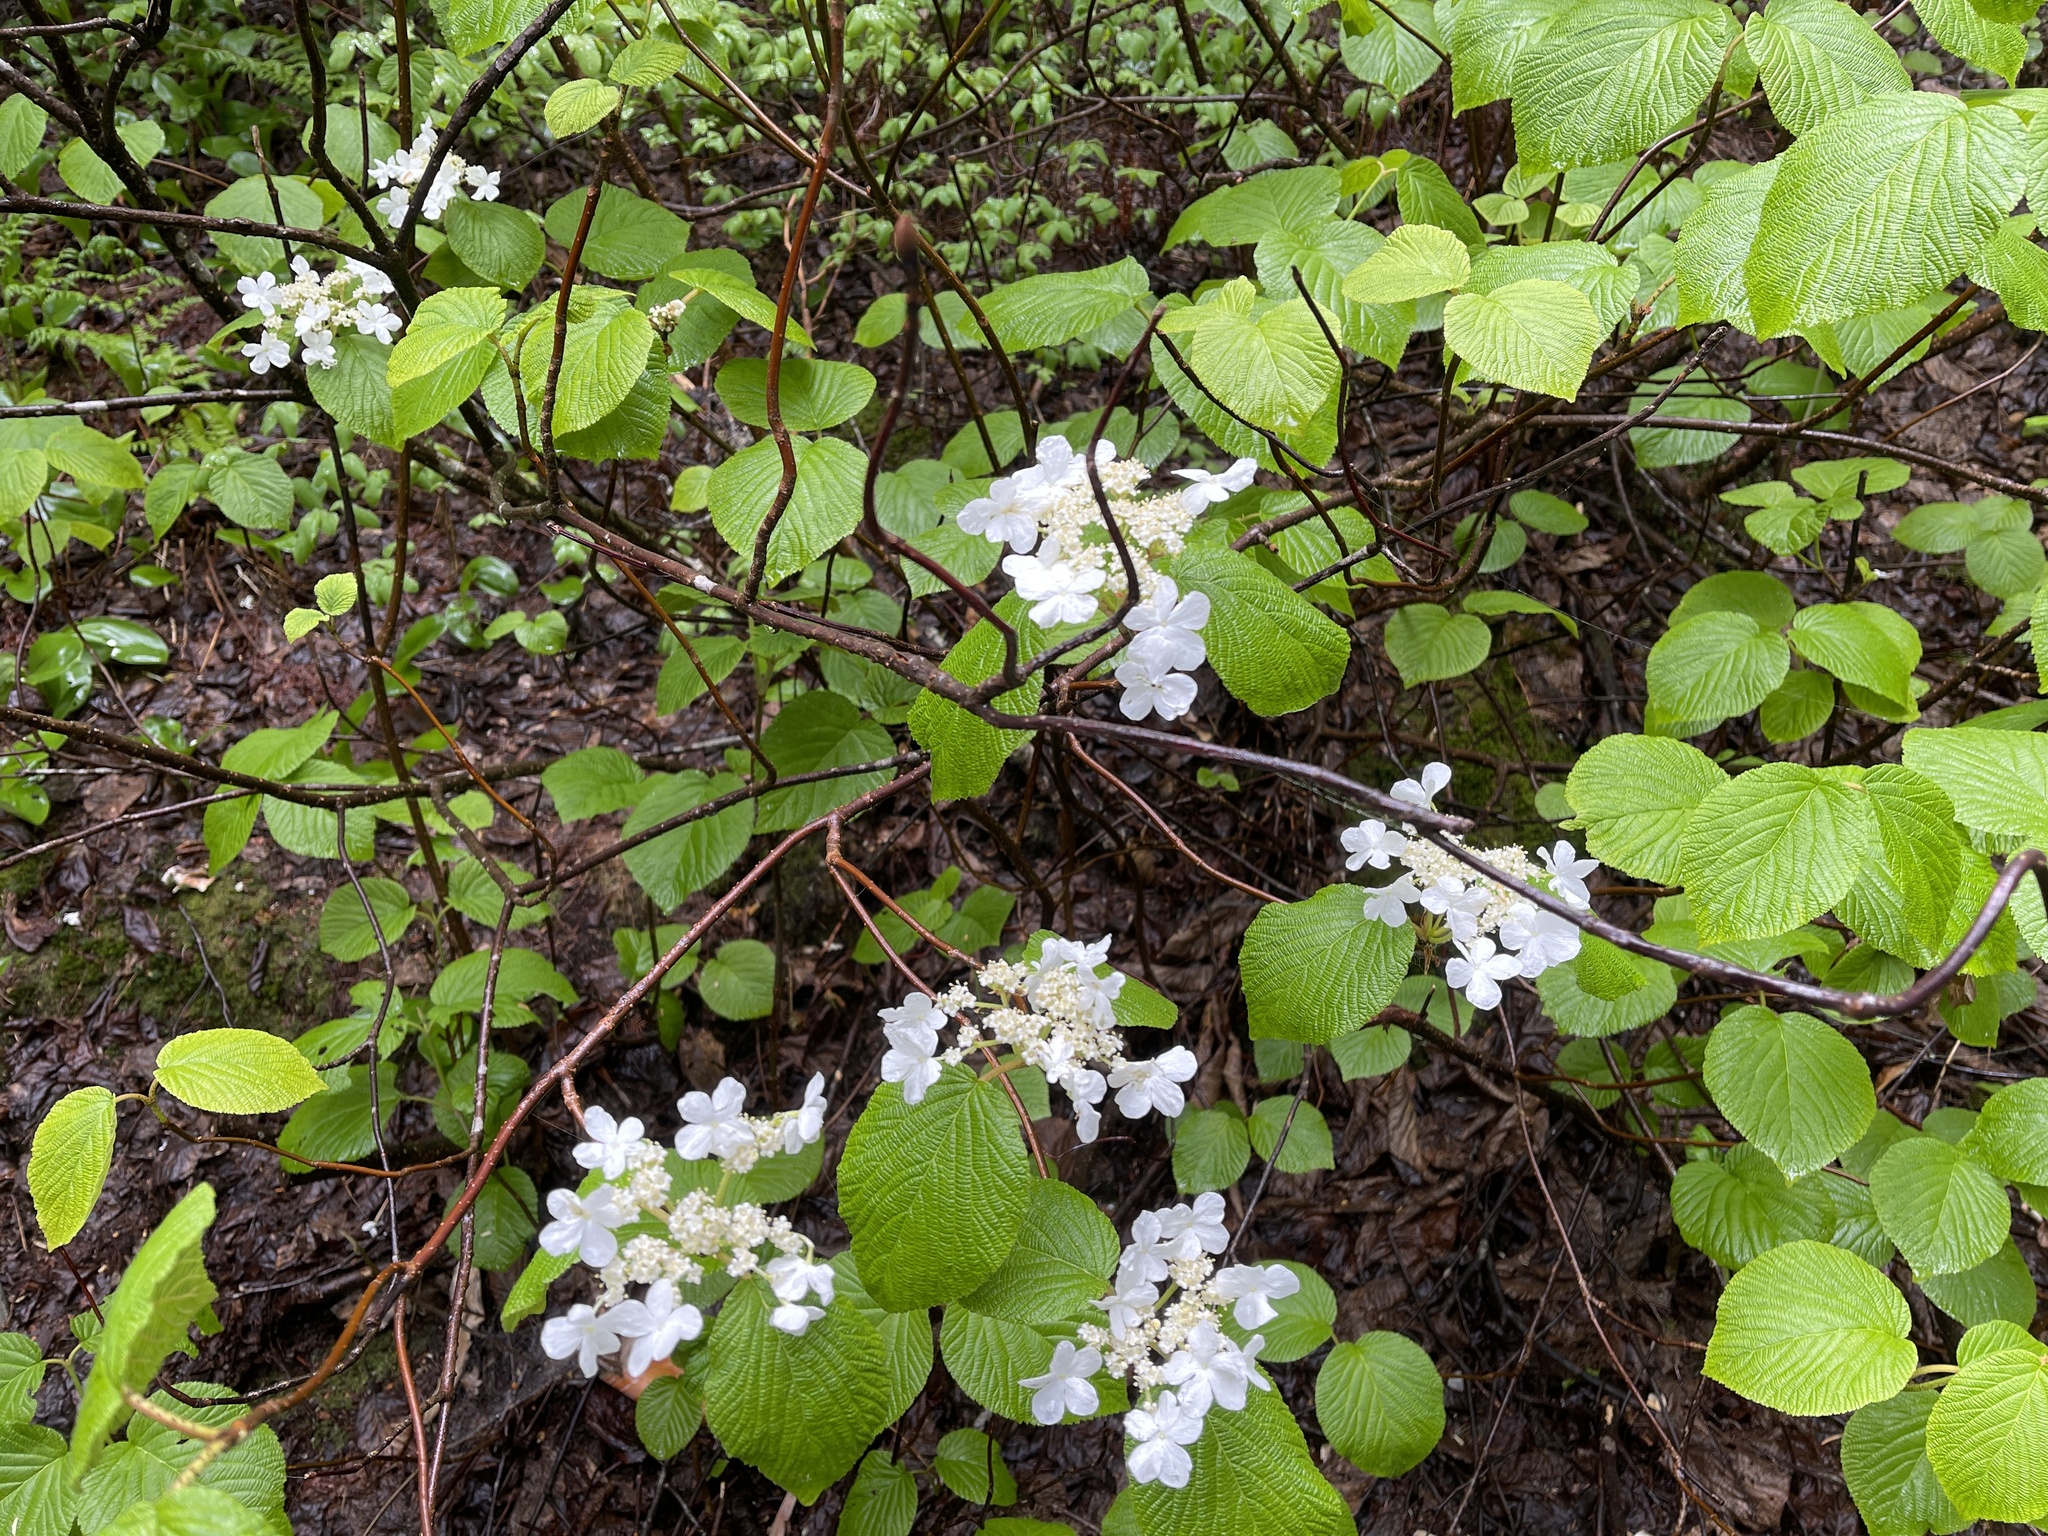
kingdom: Plantae
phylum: Tracheophyta
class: Magnoliopsida
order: Dipsacales
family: Viburnaceae
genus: Viburnum
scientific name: Viburnum lantanoides
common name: Hobblebush
